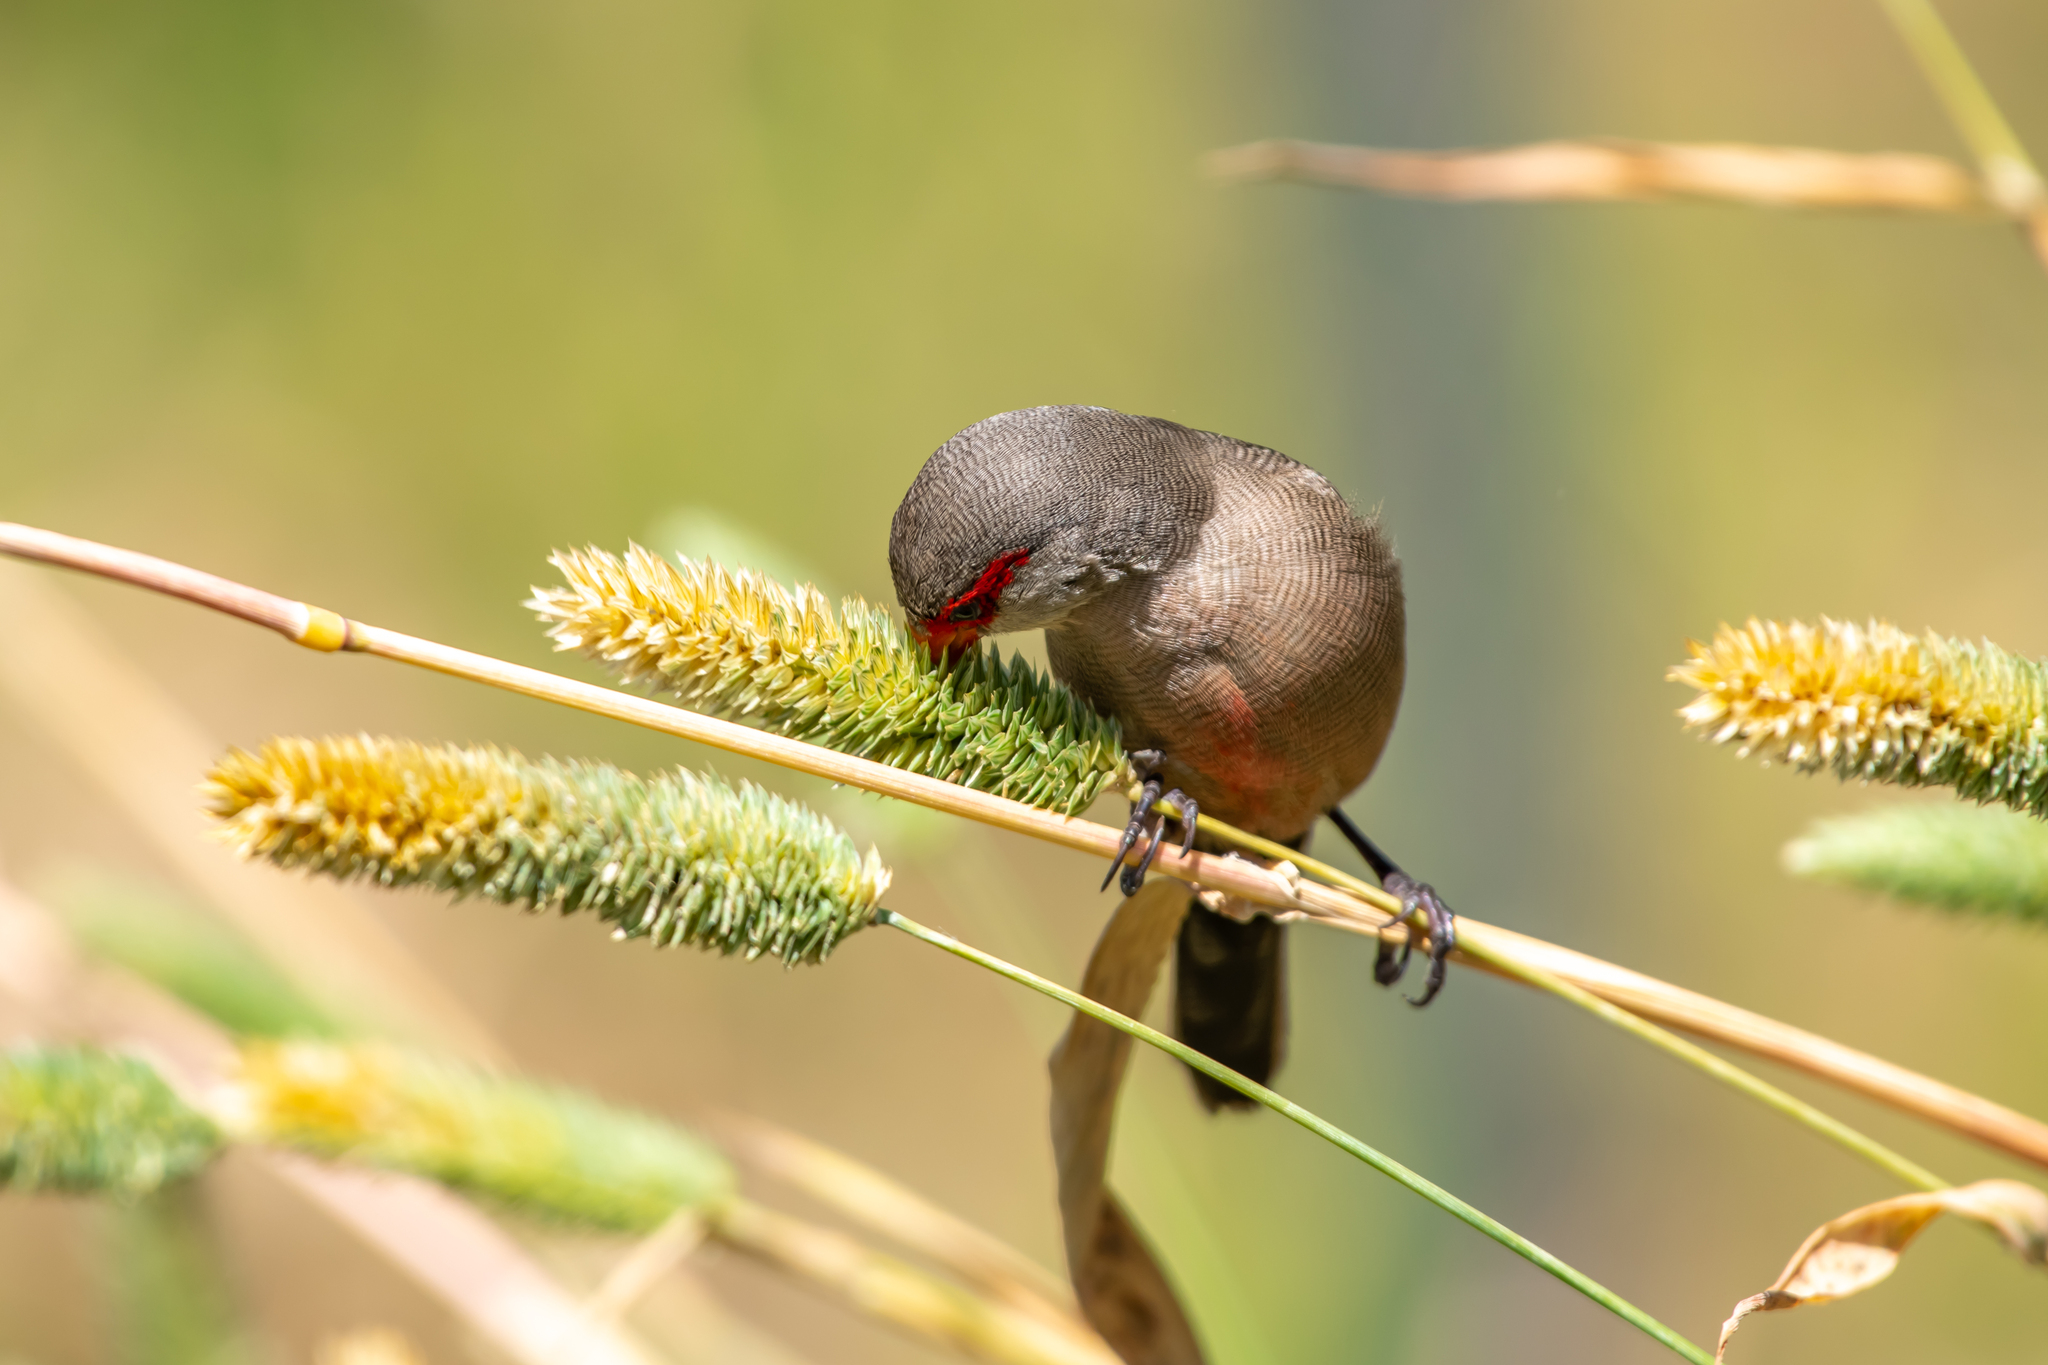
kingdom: Animalia
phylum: Chordata
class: Aves
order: Passeriformes
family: Estrildidae
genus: Estrilda
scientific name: Estrilda astrild
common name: Common waxbill
